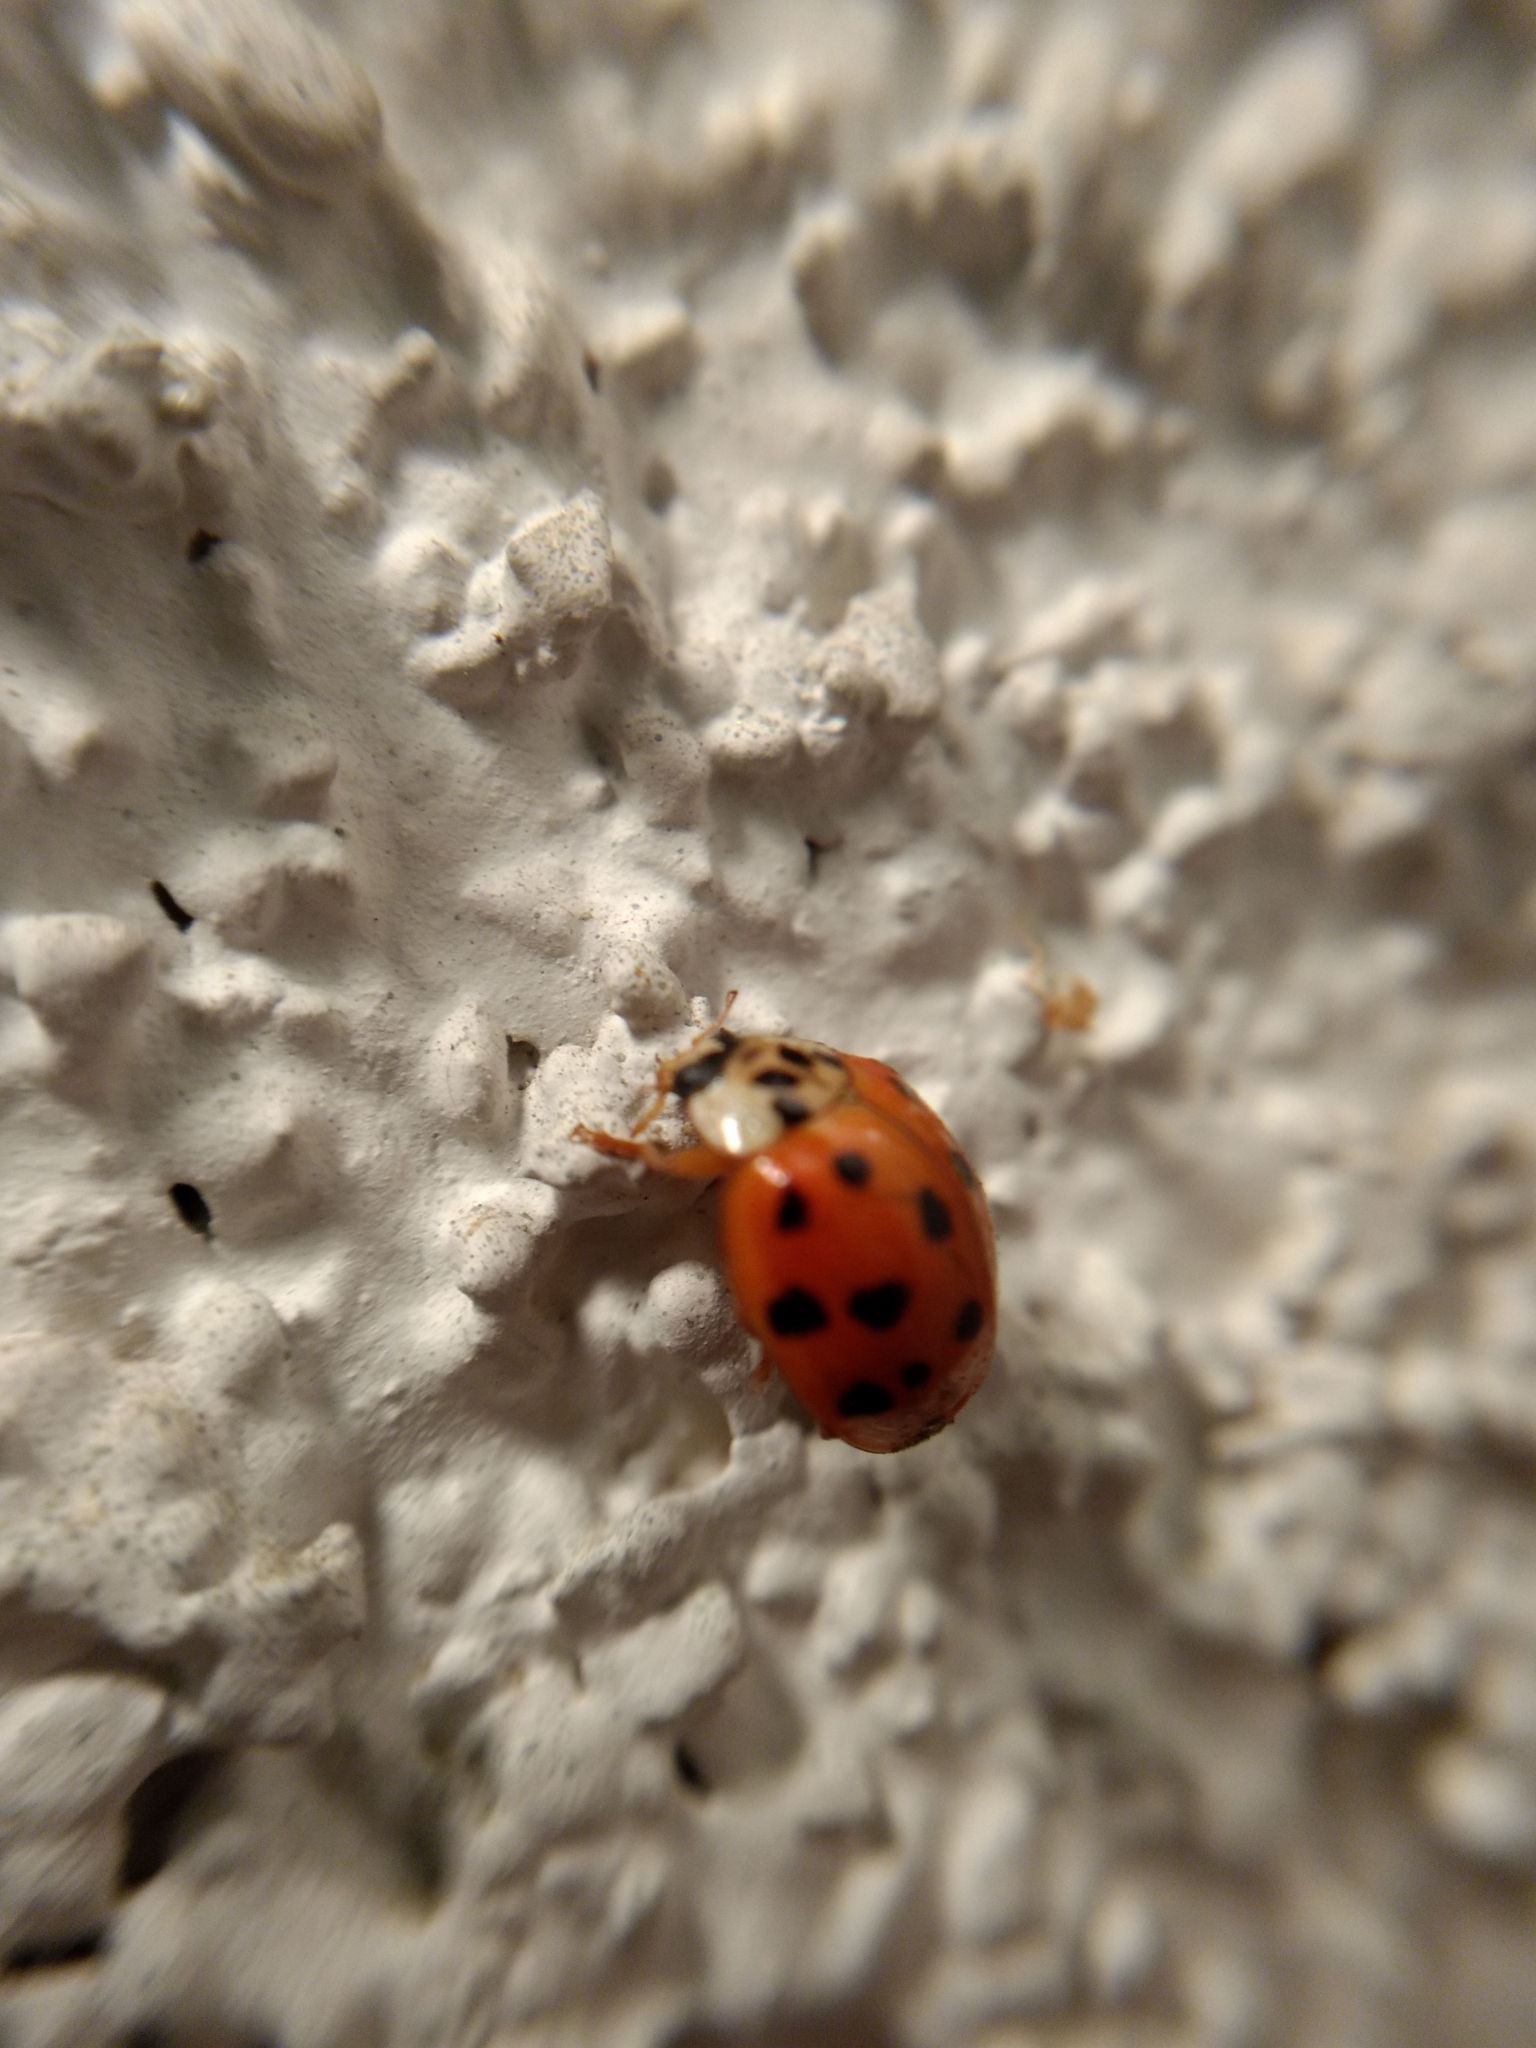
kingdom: Animalia
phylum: Arthropoda
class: Insecta
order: Coleoptera
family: Coccinellidae
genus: Harmonia
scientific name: Harmonia axyridis
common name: Harlequin ladybird
